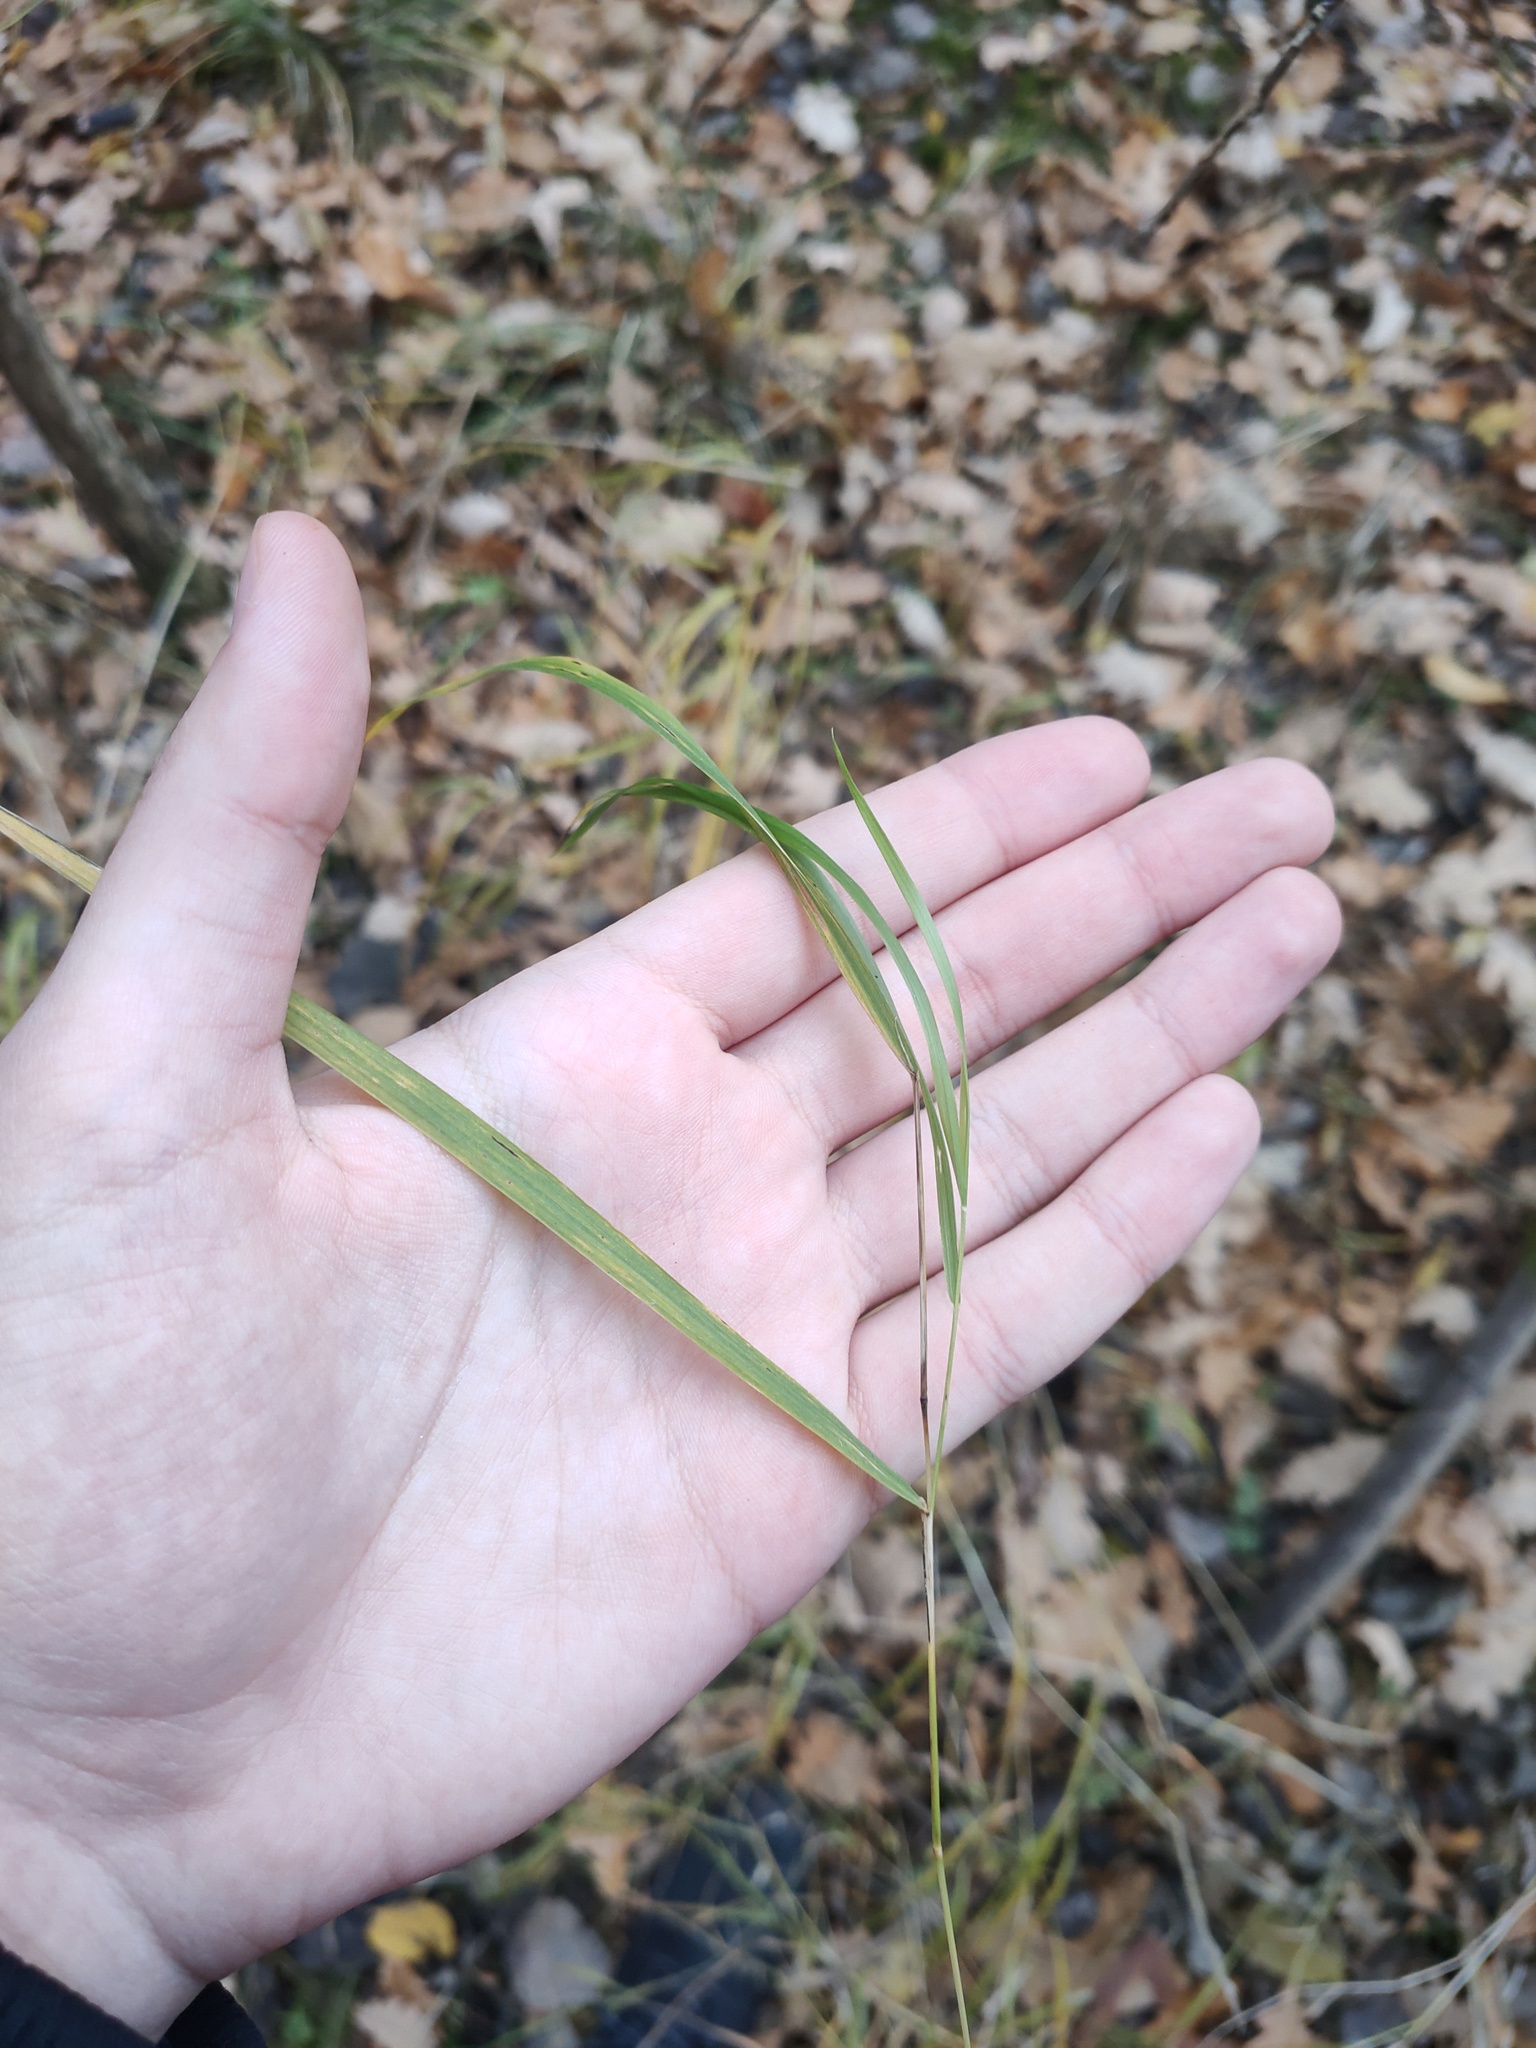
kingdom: Plantae
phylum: Tracheophyta
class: Liliopsida
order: Poales
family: Poaceae
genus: Calamagrostis
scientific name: Calamagrostis canescens
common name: Purple small-reed
